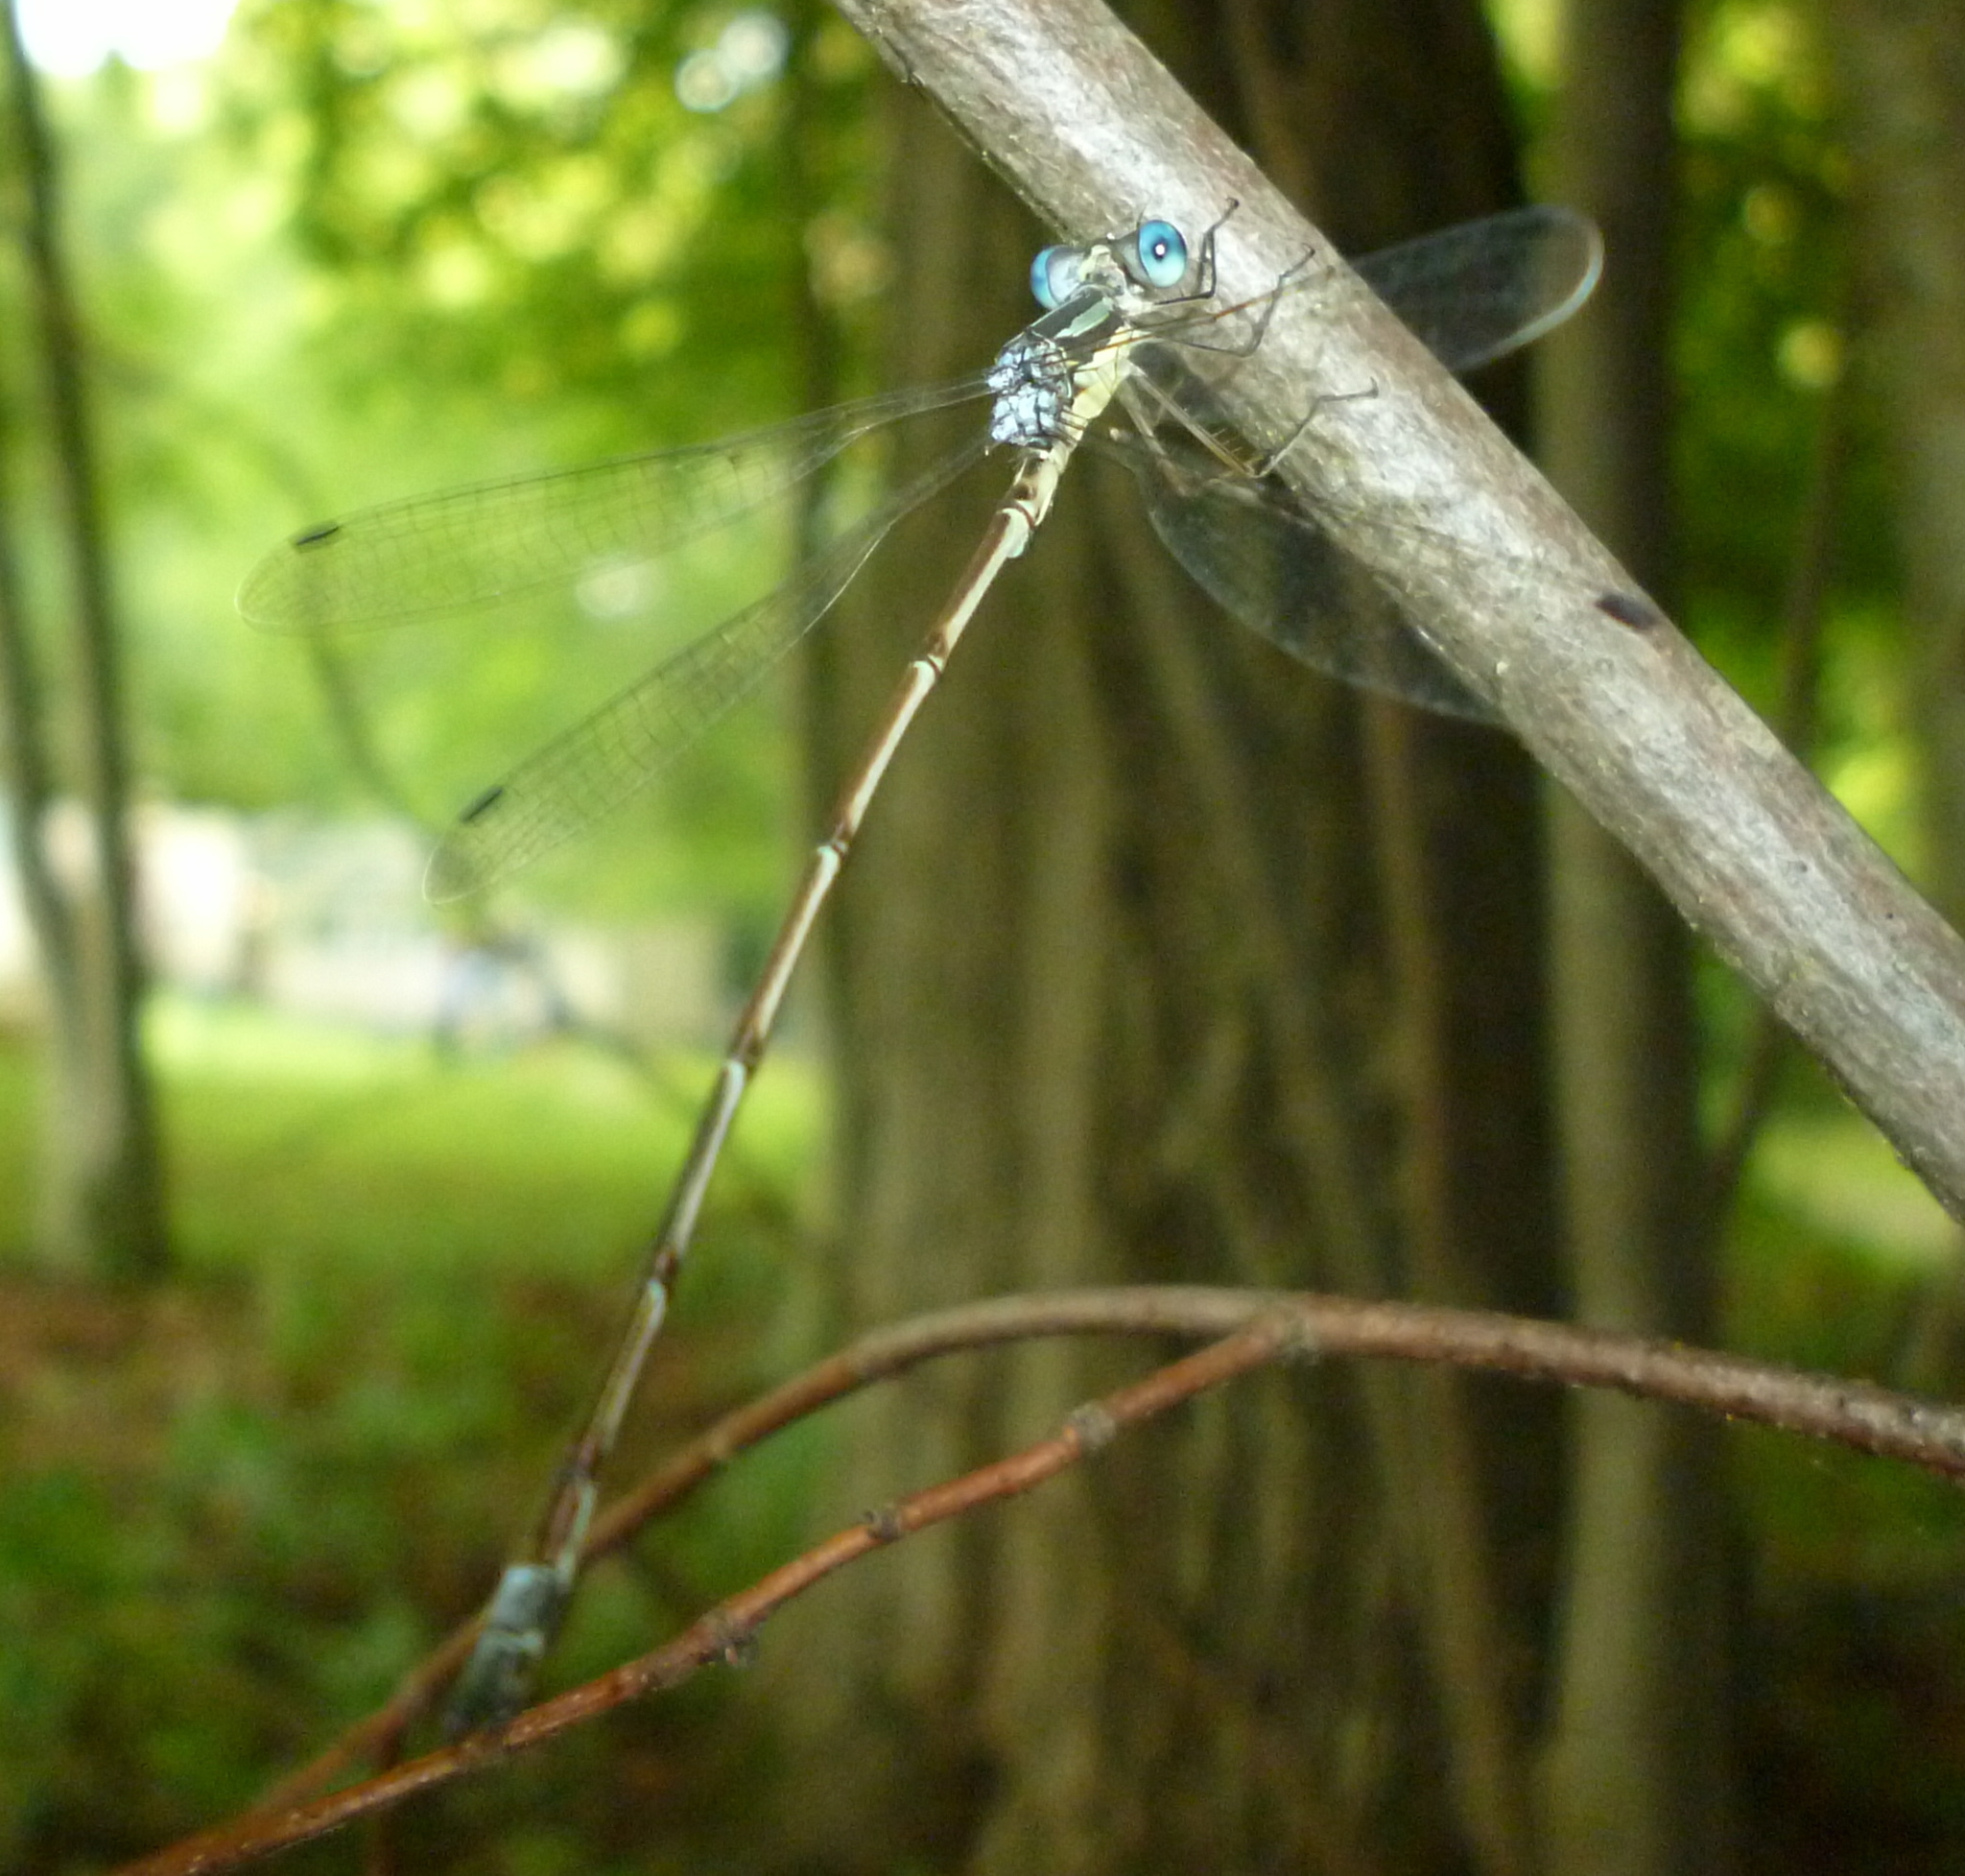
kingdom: Animalia
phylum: Arthropoda
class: Insecta
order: Odonata
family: Lestidae
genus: Lestes
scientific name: Lestes rectangularis
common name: Slender spreadwing
